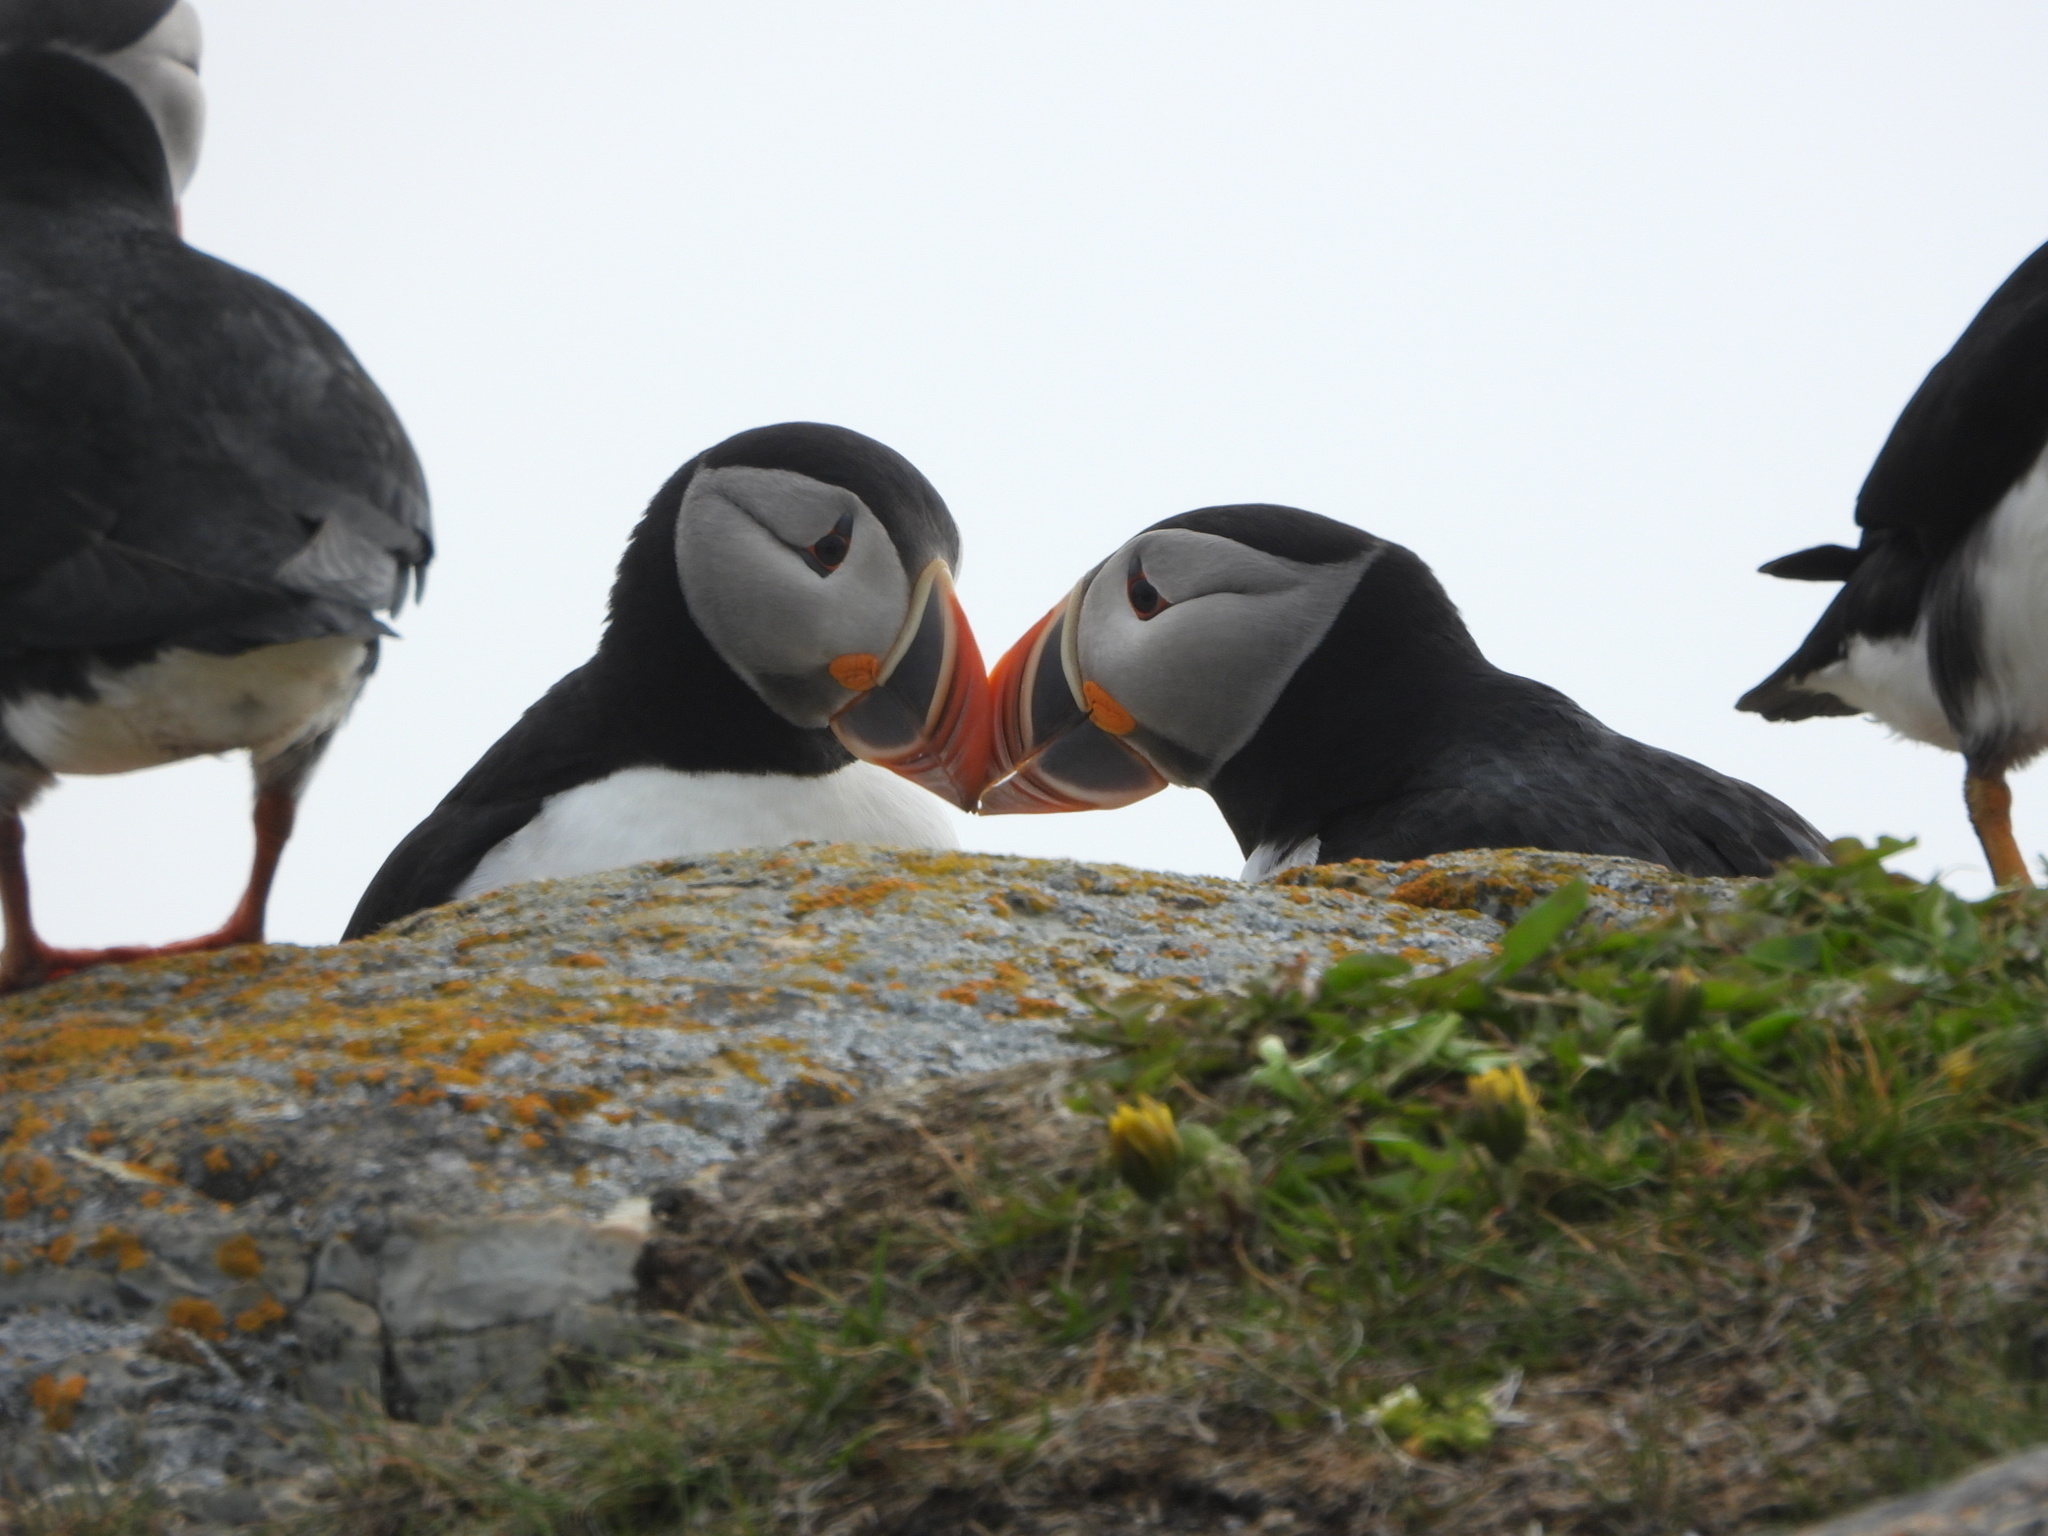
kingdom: Animalia
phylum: Chordata
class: Aves
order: Charadriiformes
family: Alcidae
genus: Fratercula
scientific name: Fratercula arctica
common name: Atlantic puffin
